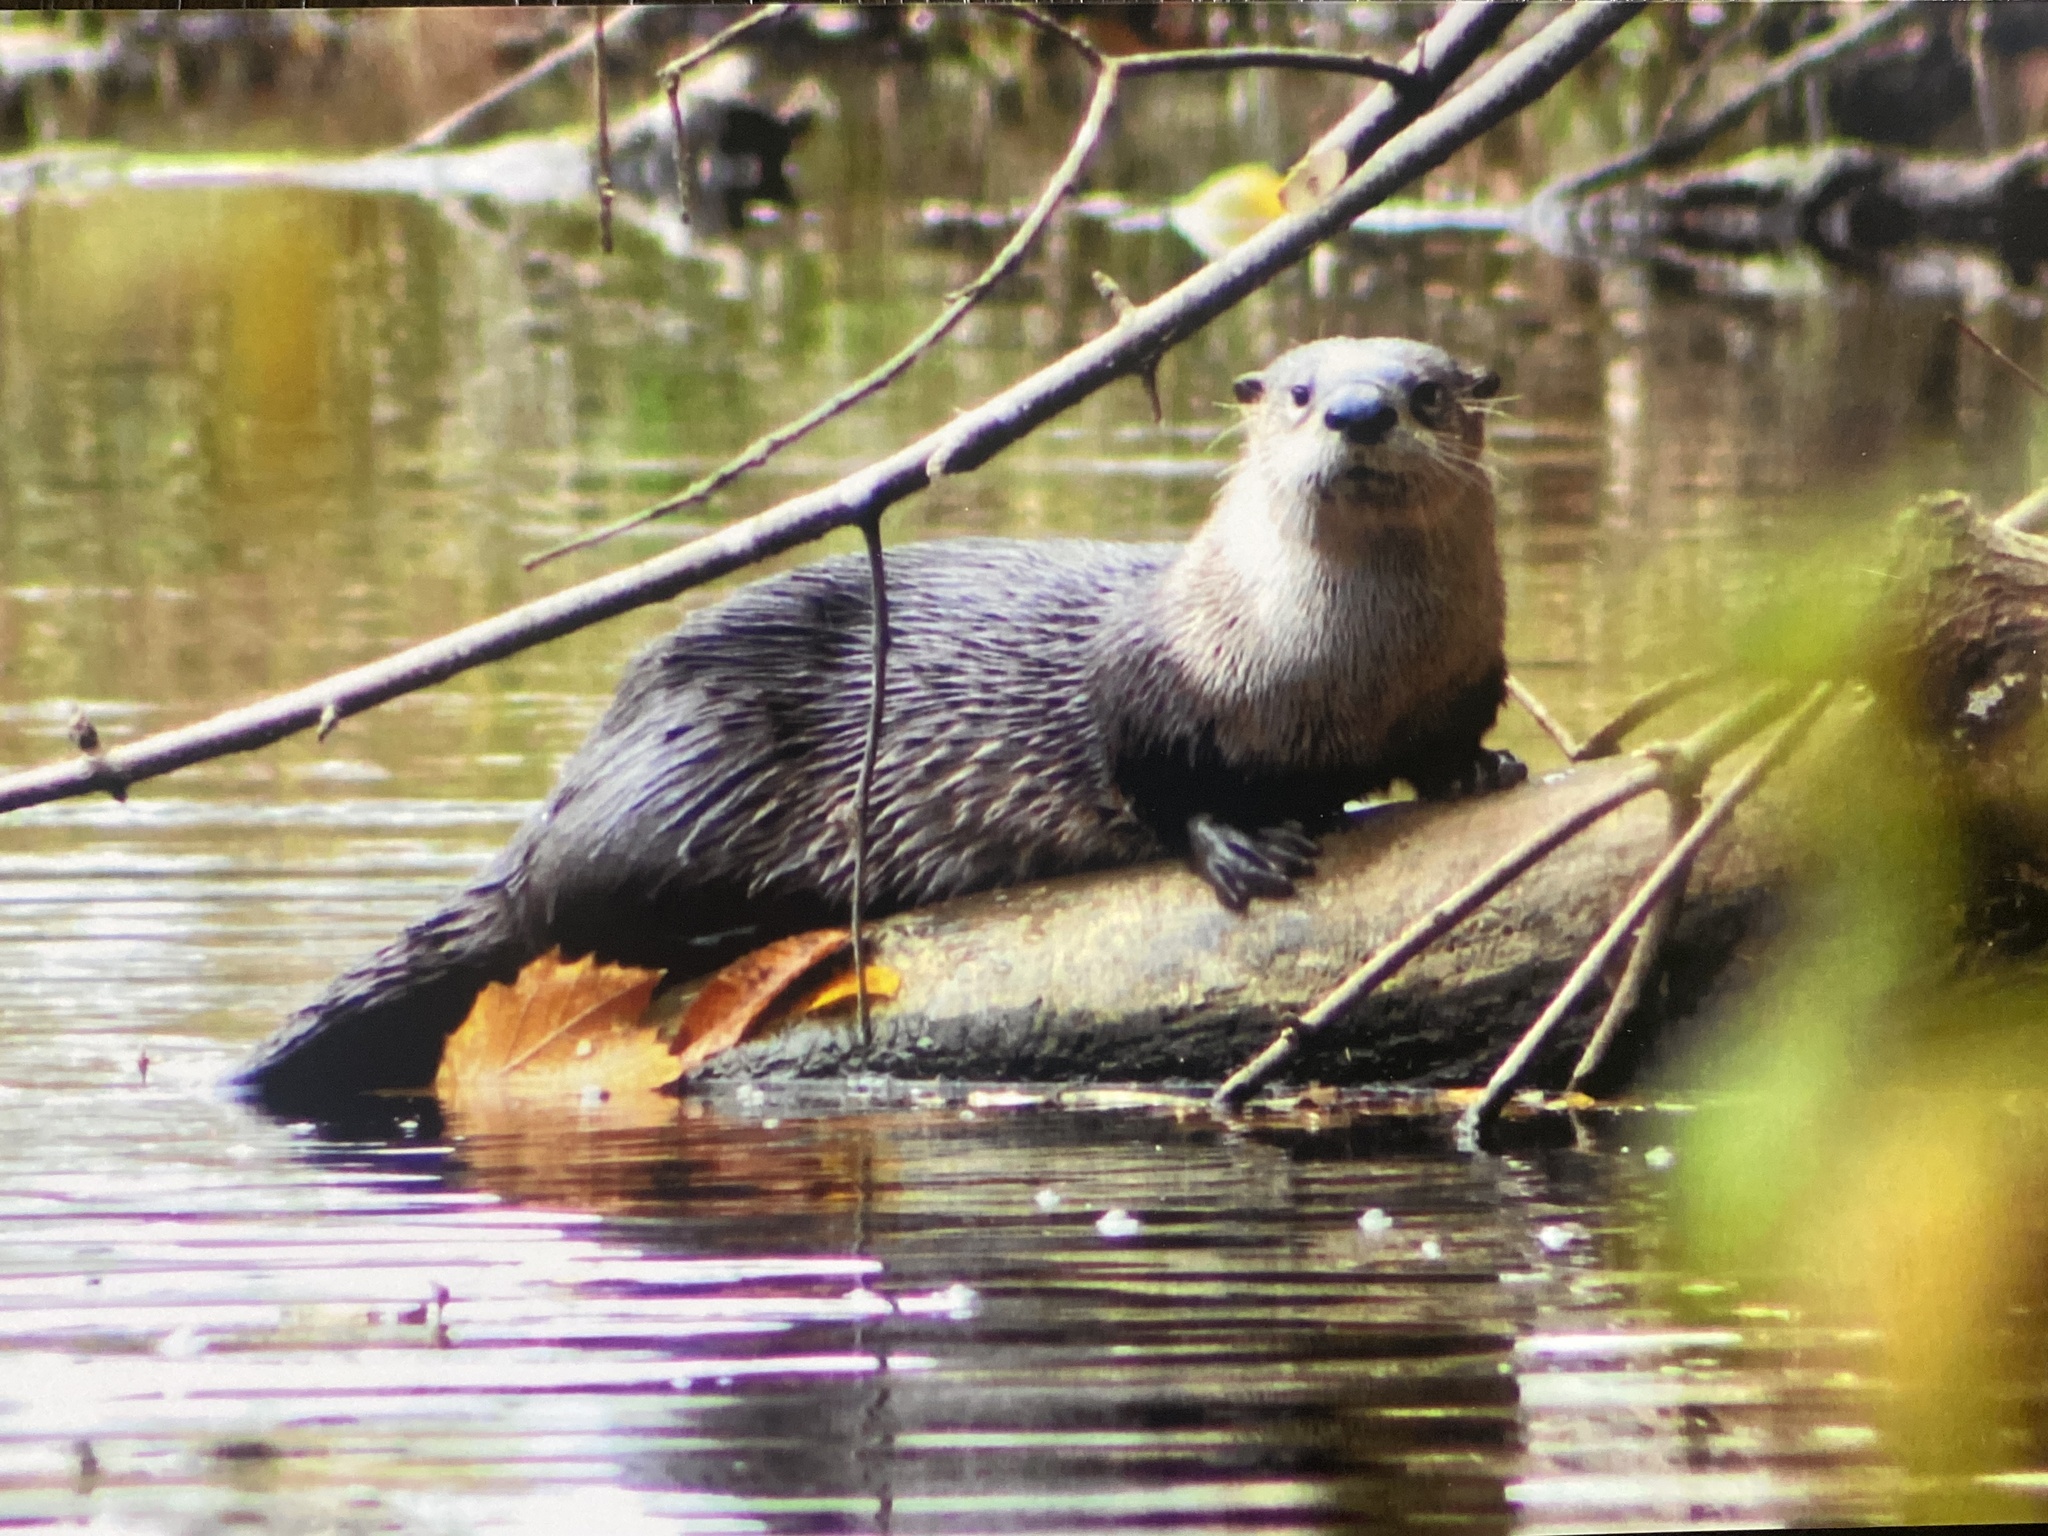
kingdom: Animalia
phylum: Chordata
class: Mammalia
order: Carnivora
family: Mustelidae
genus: Lontra
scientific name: Lontra canadensis
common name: North american river otter
